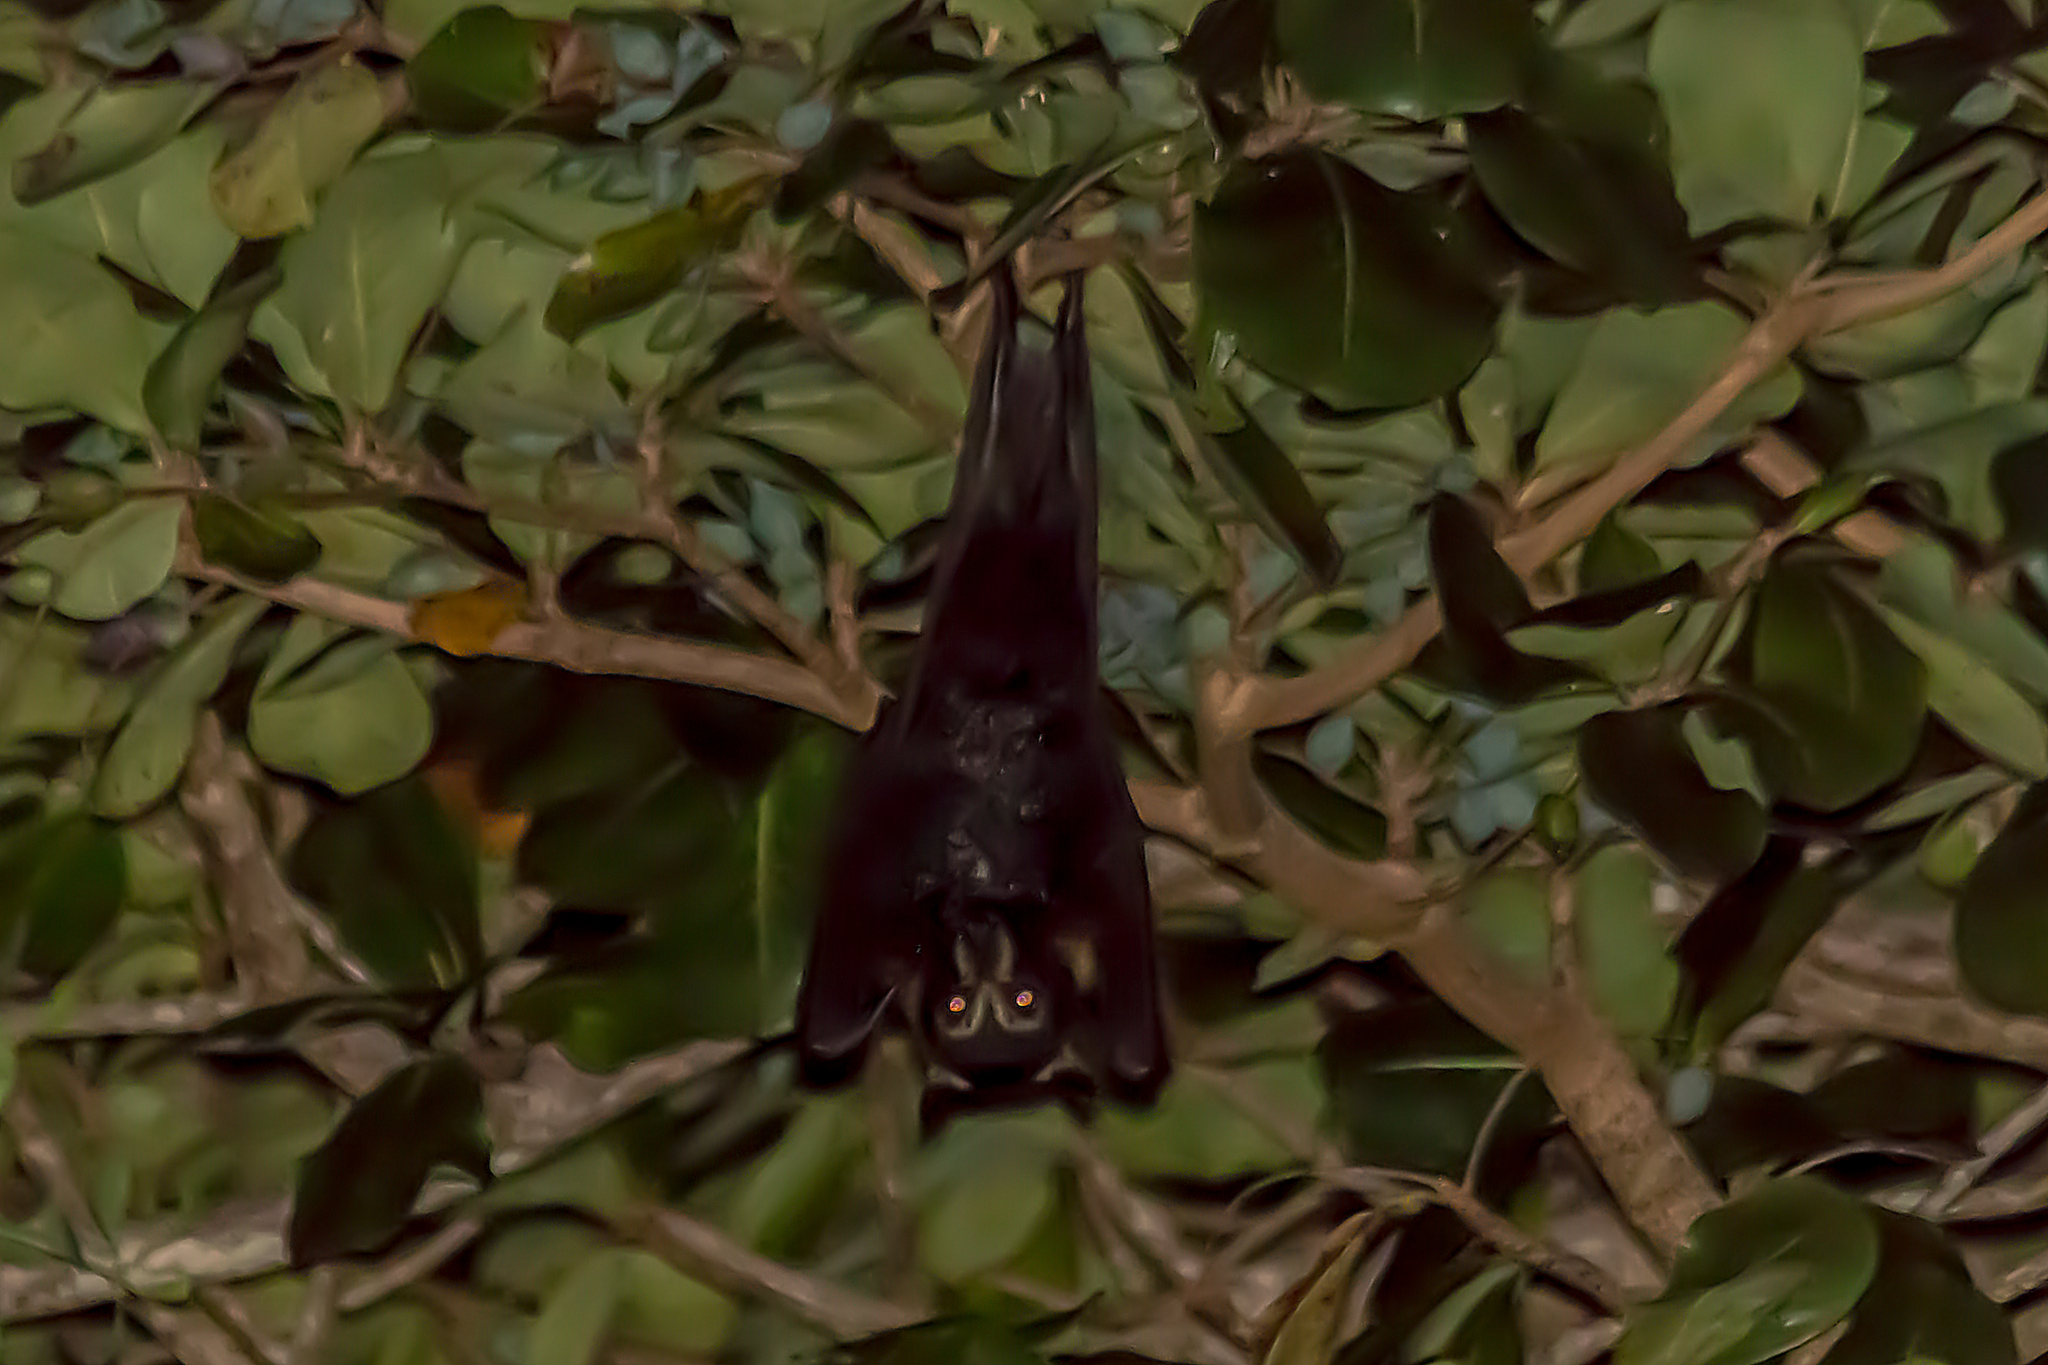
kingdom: Animalia
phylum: Chordata
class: Mammalia
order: Chiroptera
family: Pteropodidae
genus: Pteropus
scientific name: Pteropus conspicillatus
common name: Spectacled flying fox
